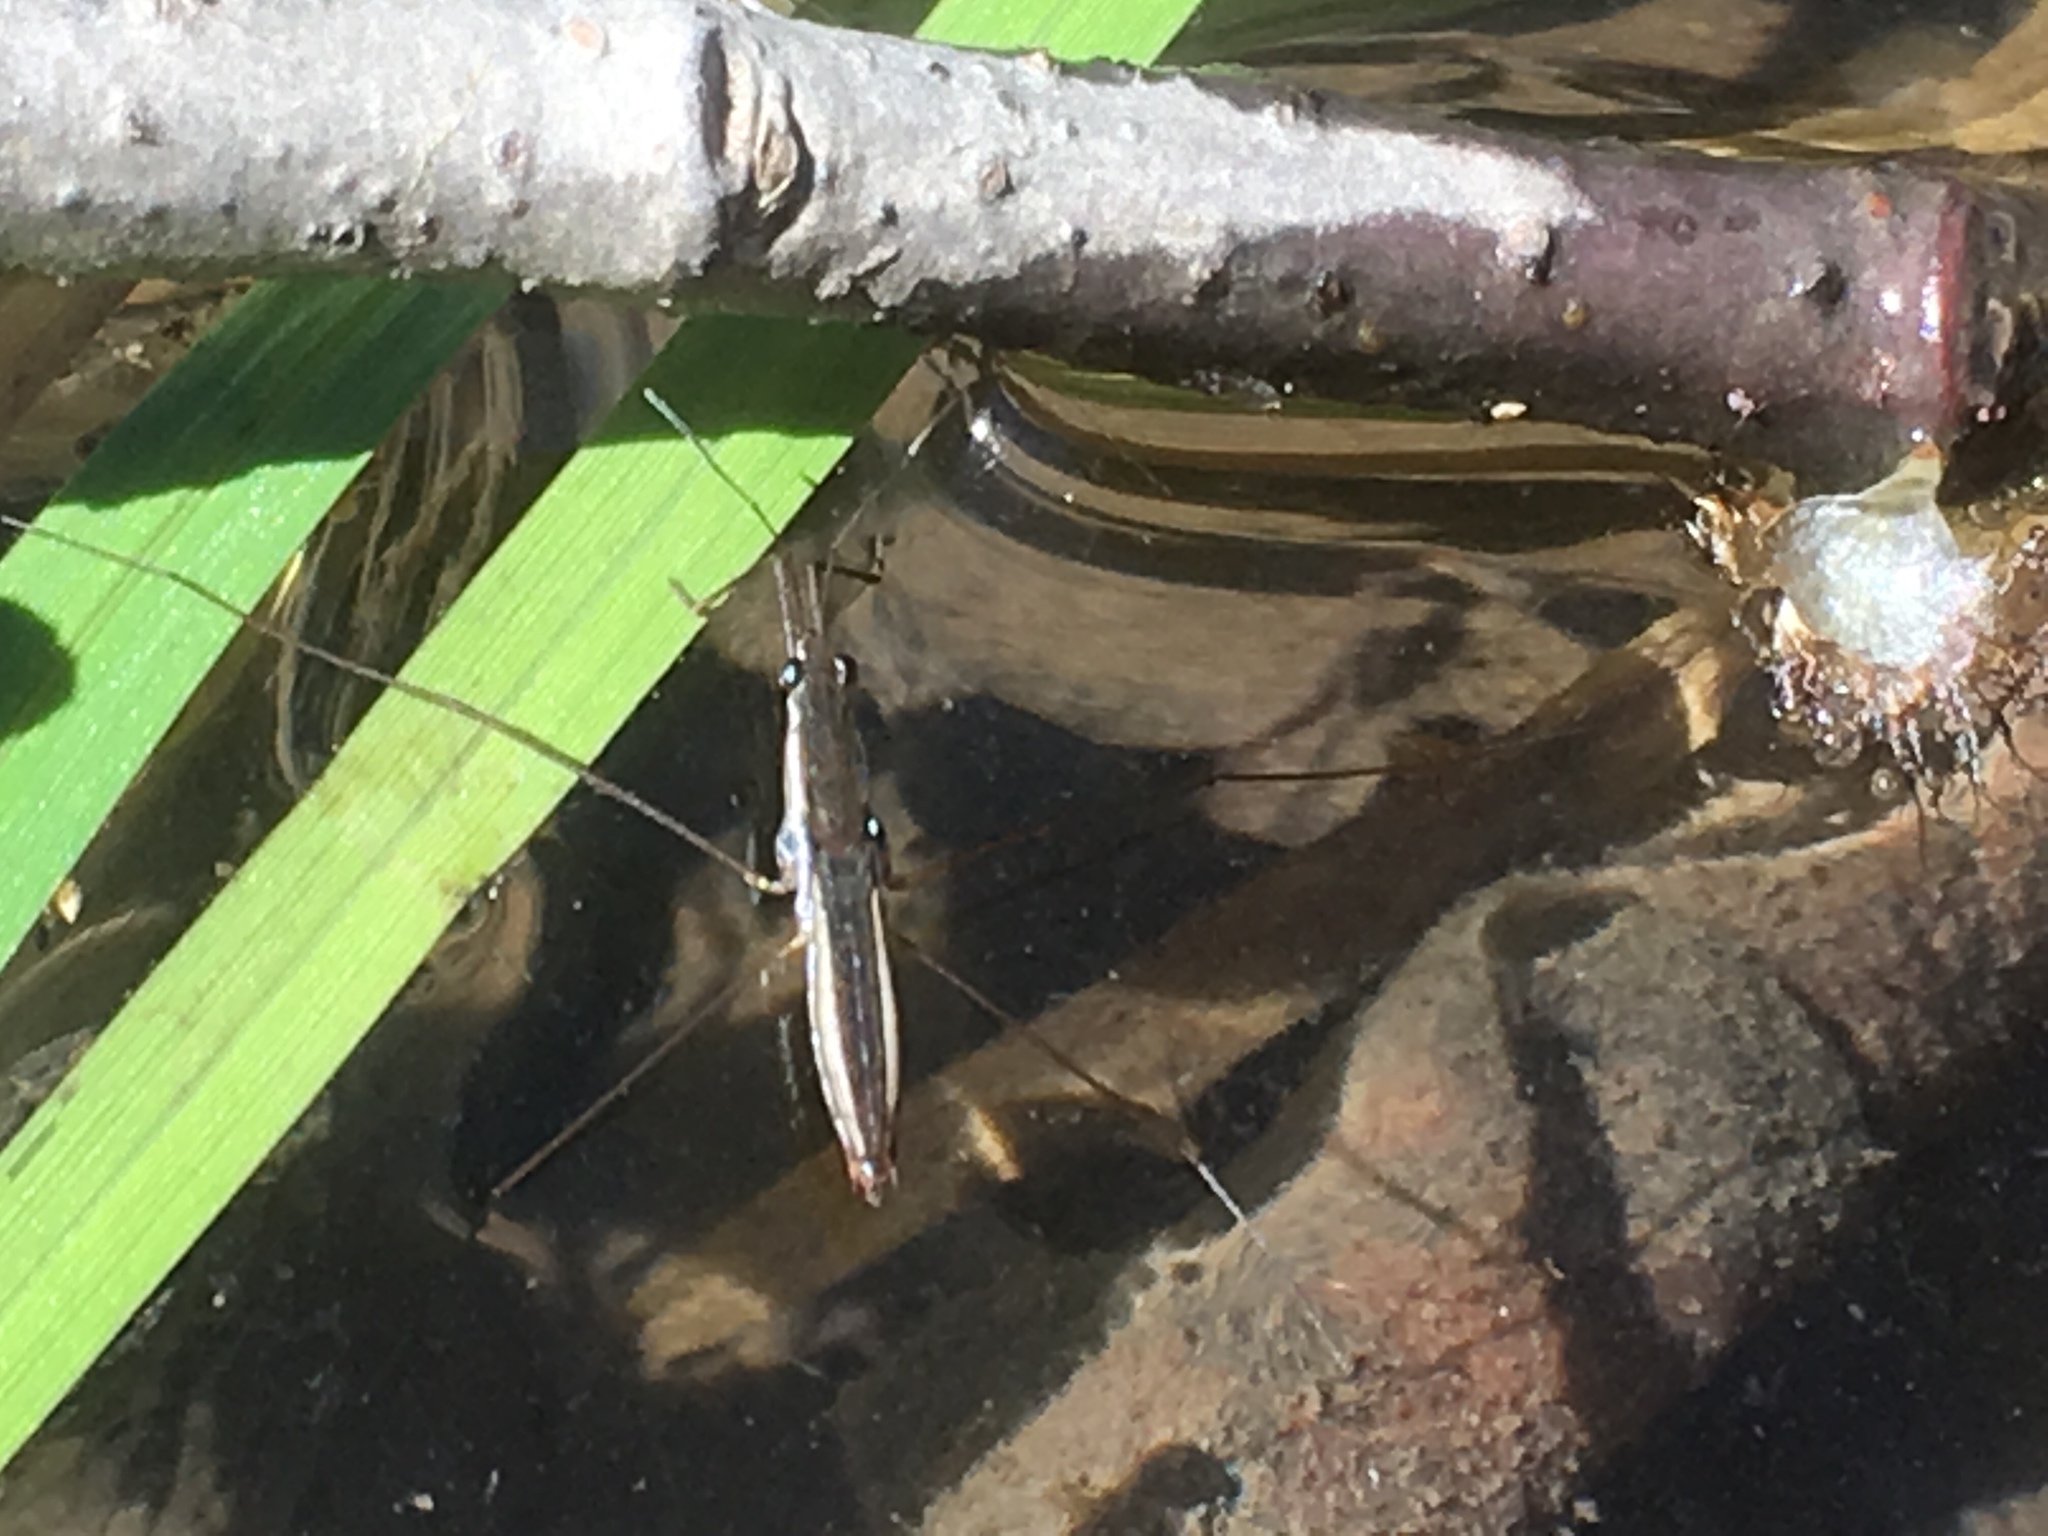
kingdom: Animalia
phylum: Arthropoda
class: Insecta
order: Hemiptera
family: Gerridae
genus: Limnoporus
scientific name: Limnoporus canaliculatus
